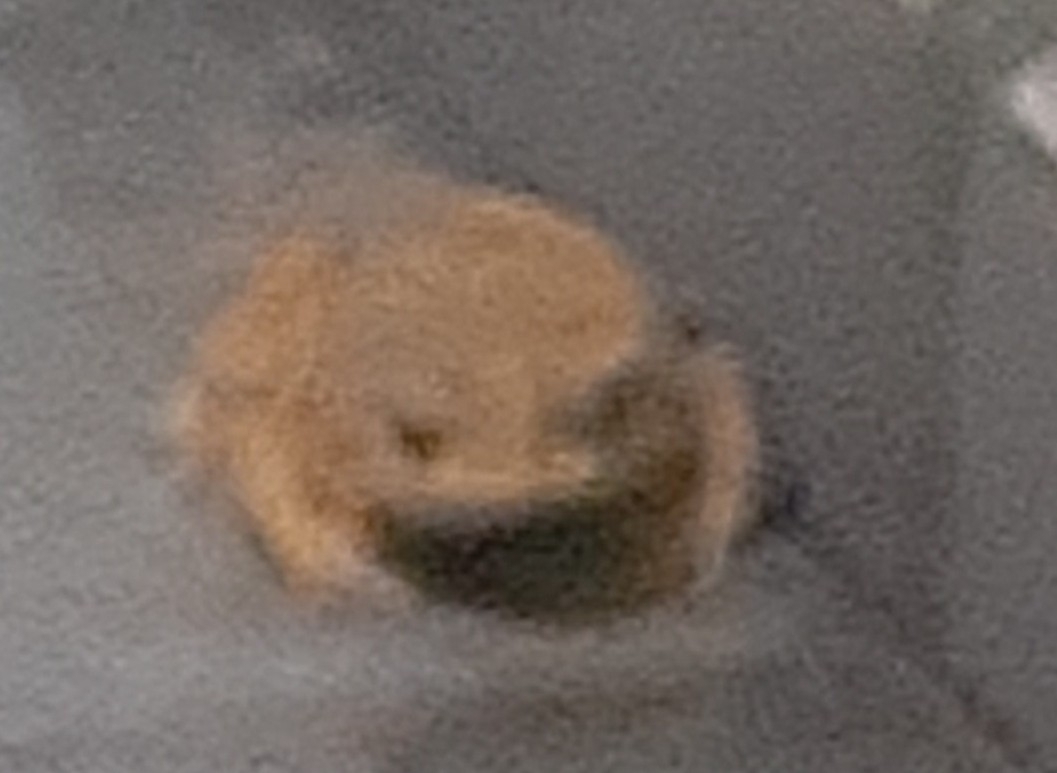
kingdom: Animalia
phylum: Chordata
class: Amphibia
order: Anura
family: Bufonidae
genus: Rhinella
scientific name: Rhinella icterica
